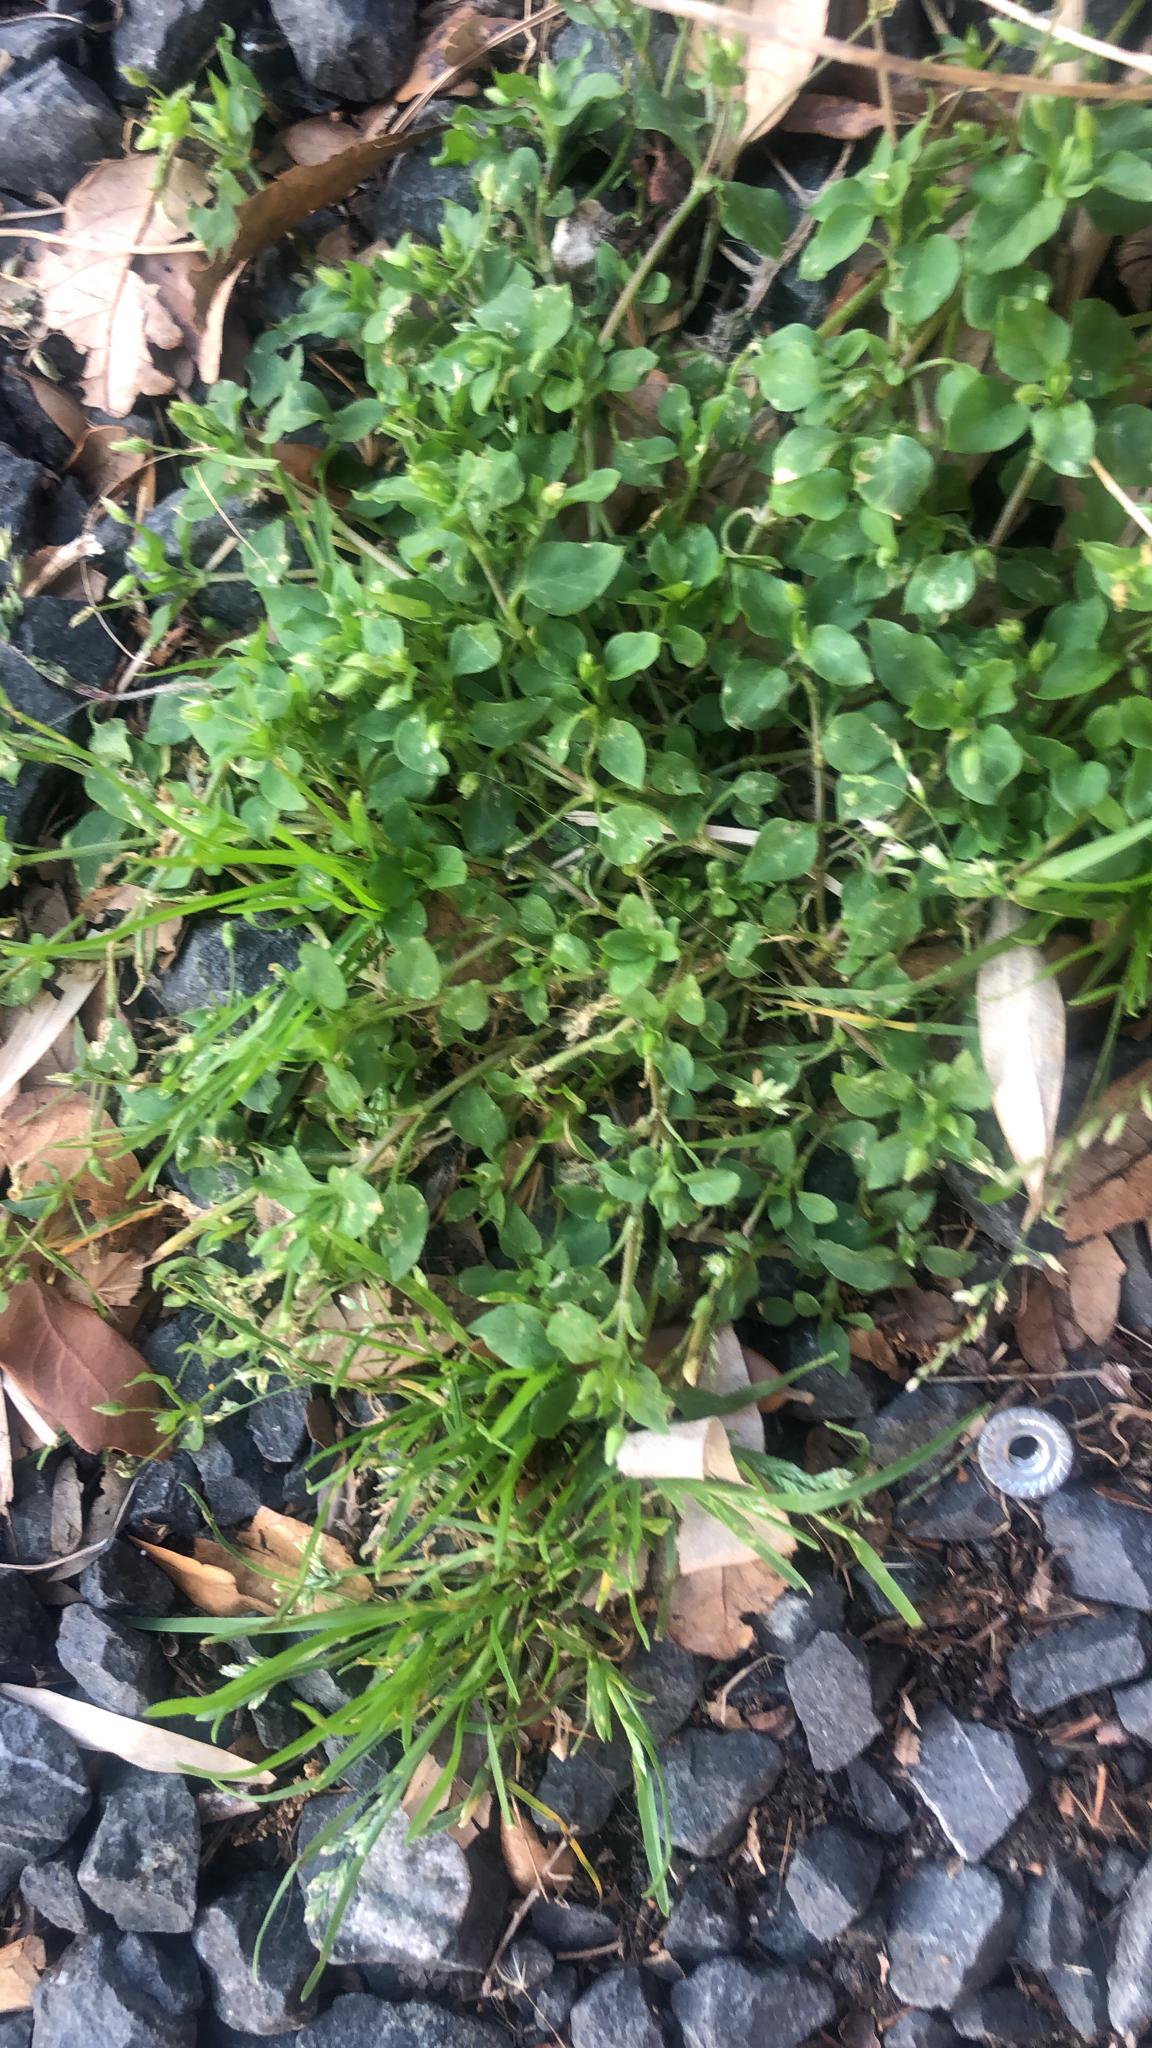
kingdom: Plantae
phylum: Tracheophyta
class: Magnoliopsida
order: Caryophyllales
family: Caryophyllaceae
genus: Stellaria
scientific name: Stellaria media
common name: Common chickweed
